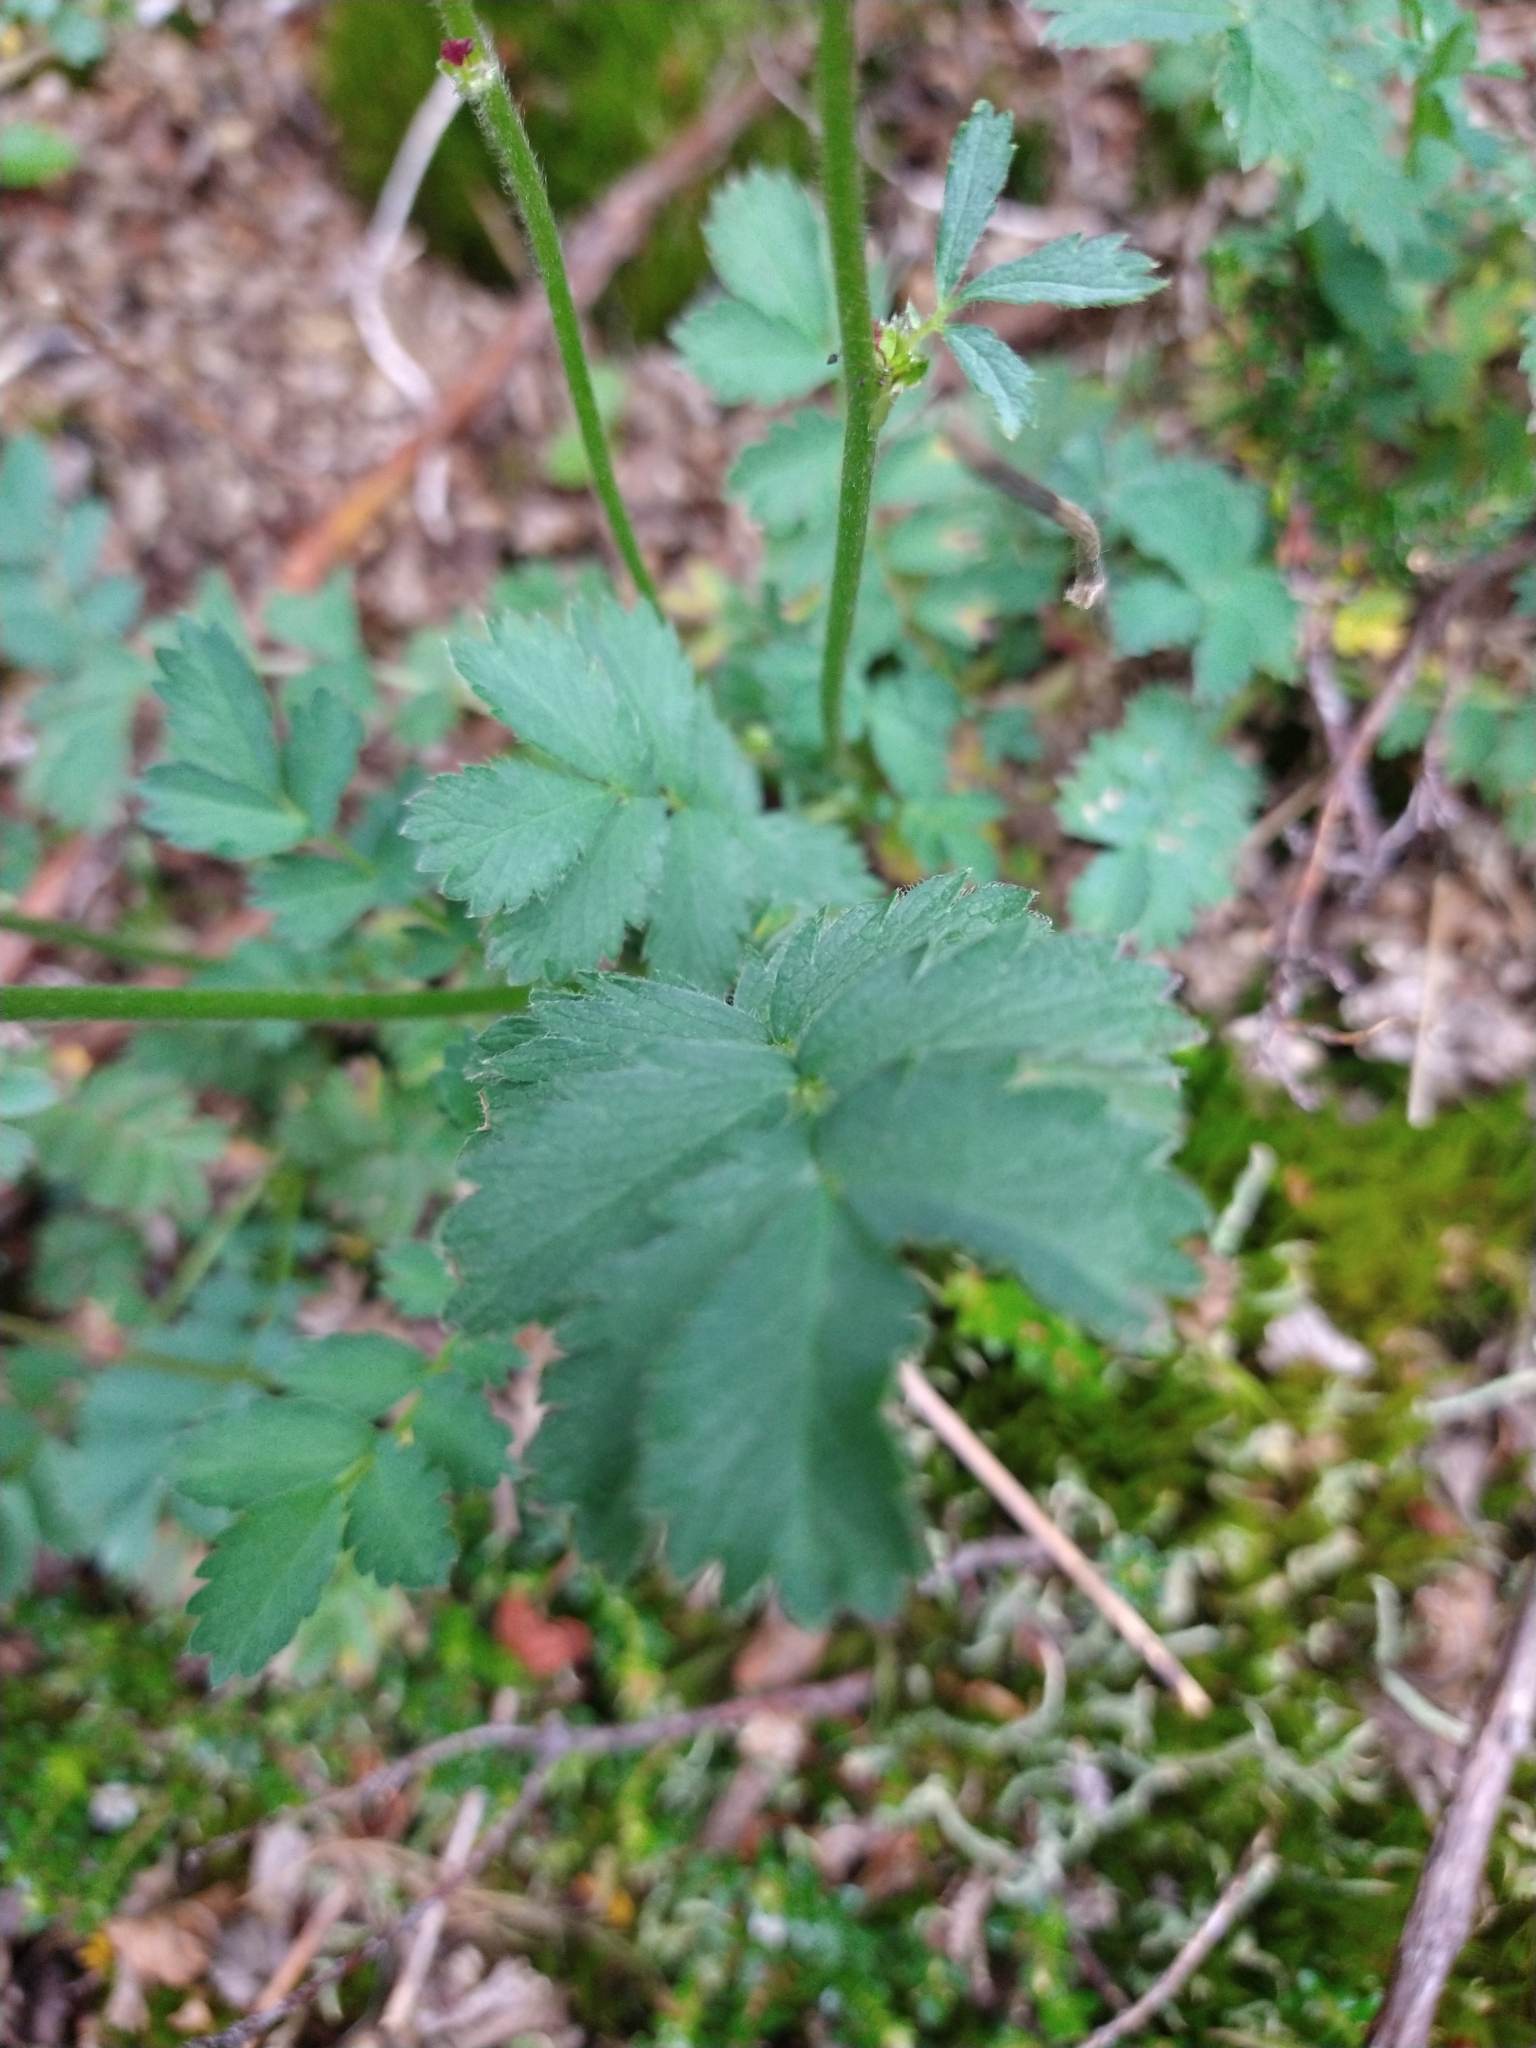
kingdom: Plantae
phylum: Tracheophyta
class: Magnoliopsida
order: Rosales
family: Rosaceae
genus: Acaena
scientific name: Acaena magellanica
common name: New zealand burr
